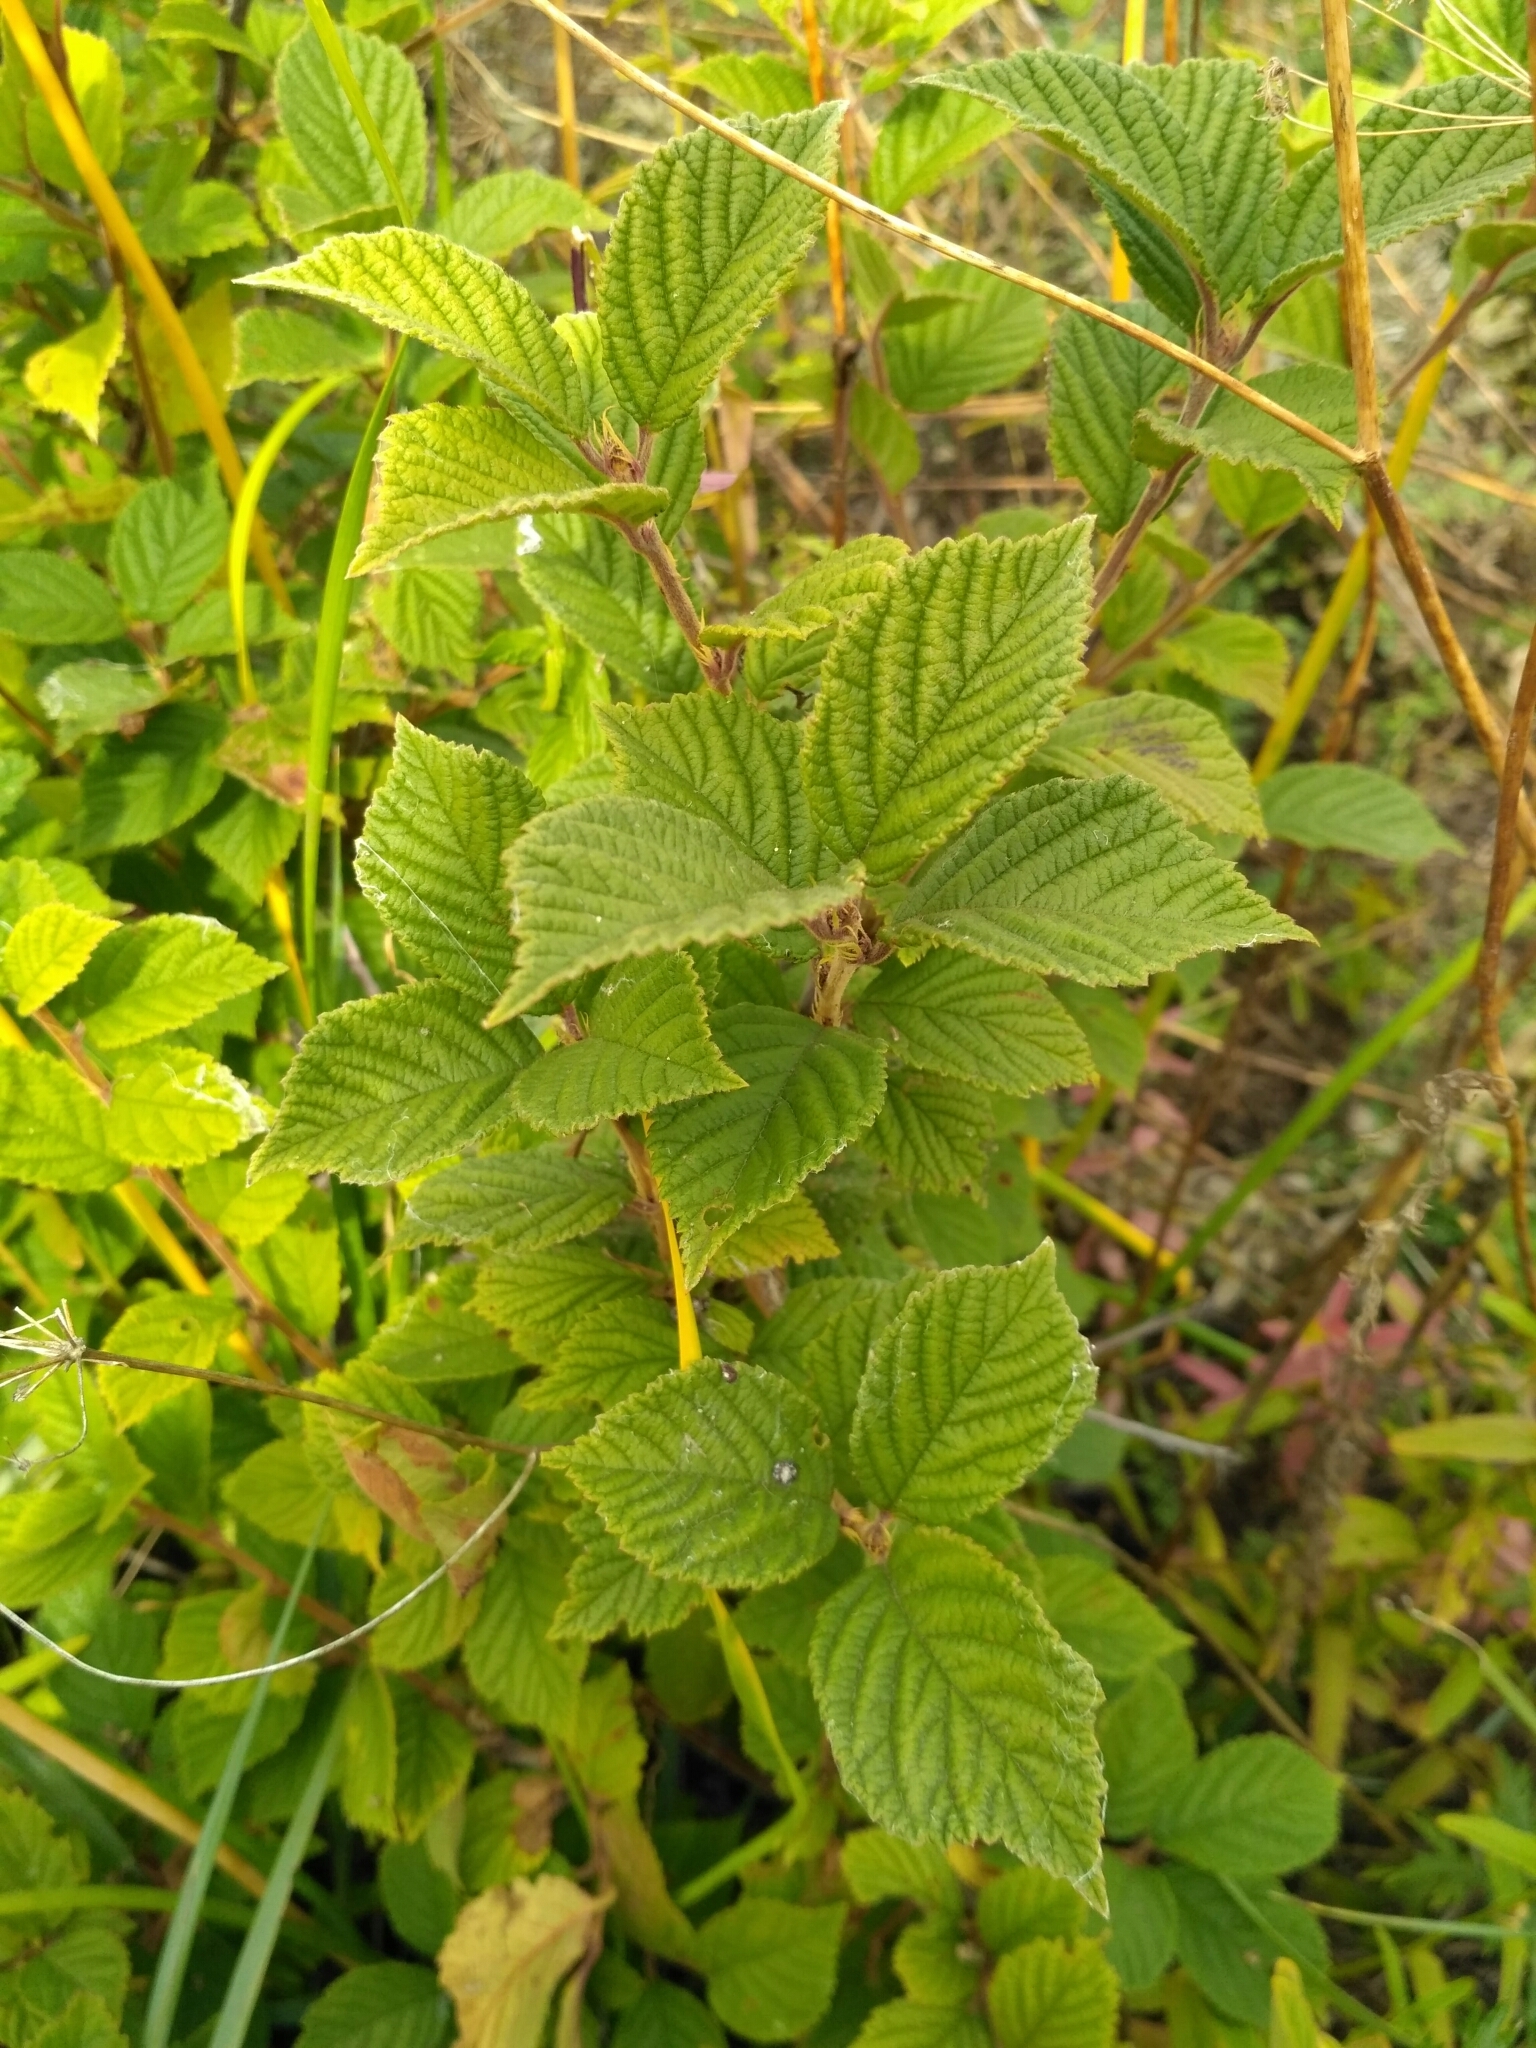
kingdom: Plantae
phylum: Tracheophyta
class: Magnoliopsida
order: Rosales
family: Rosaceae
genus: Prunus
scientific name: Prunus tomentosa
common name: Nanking cherry
